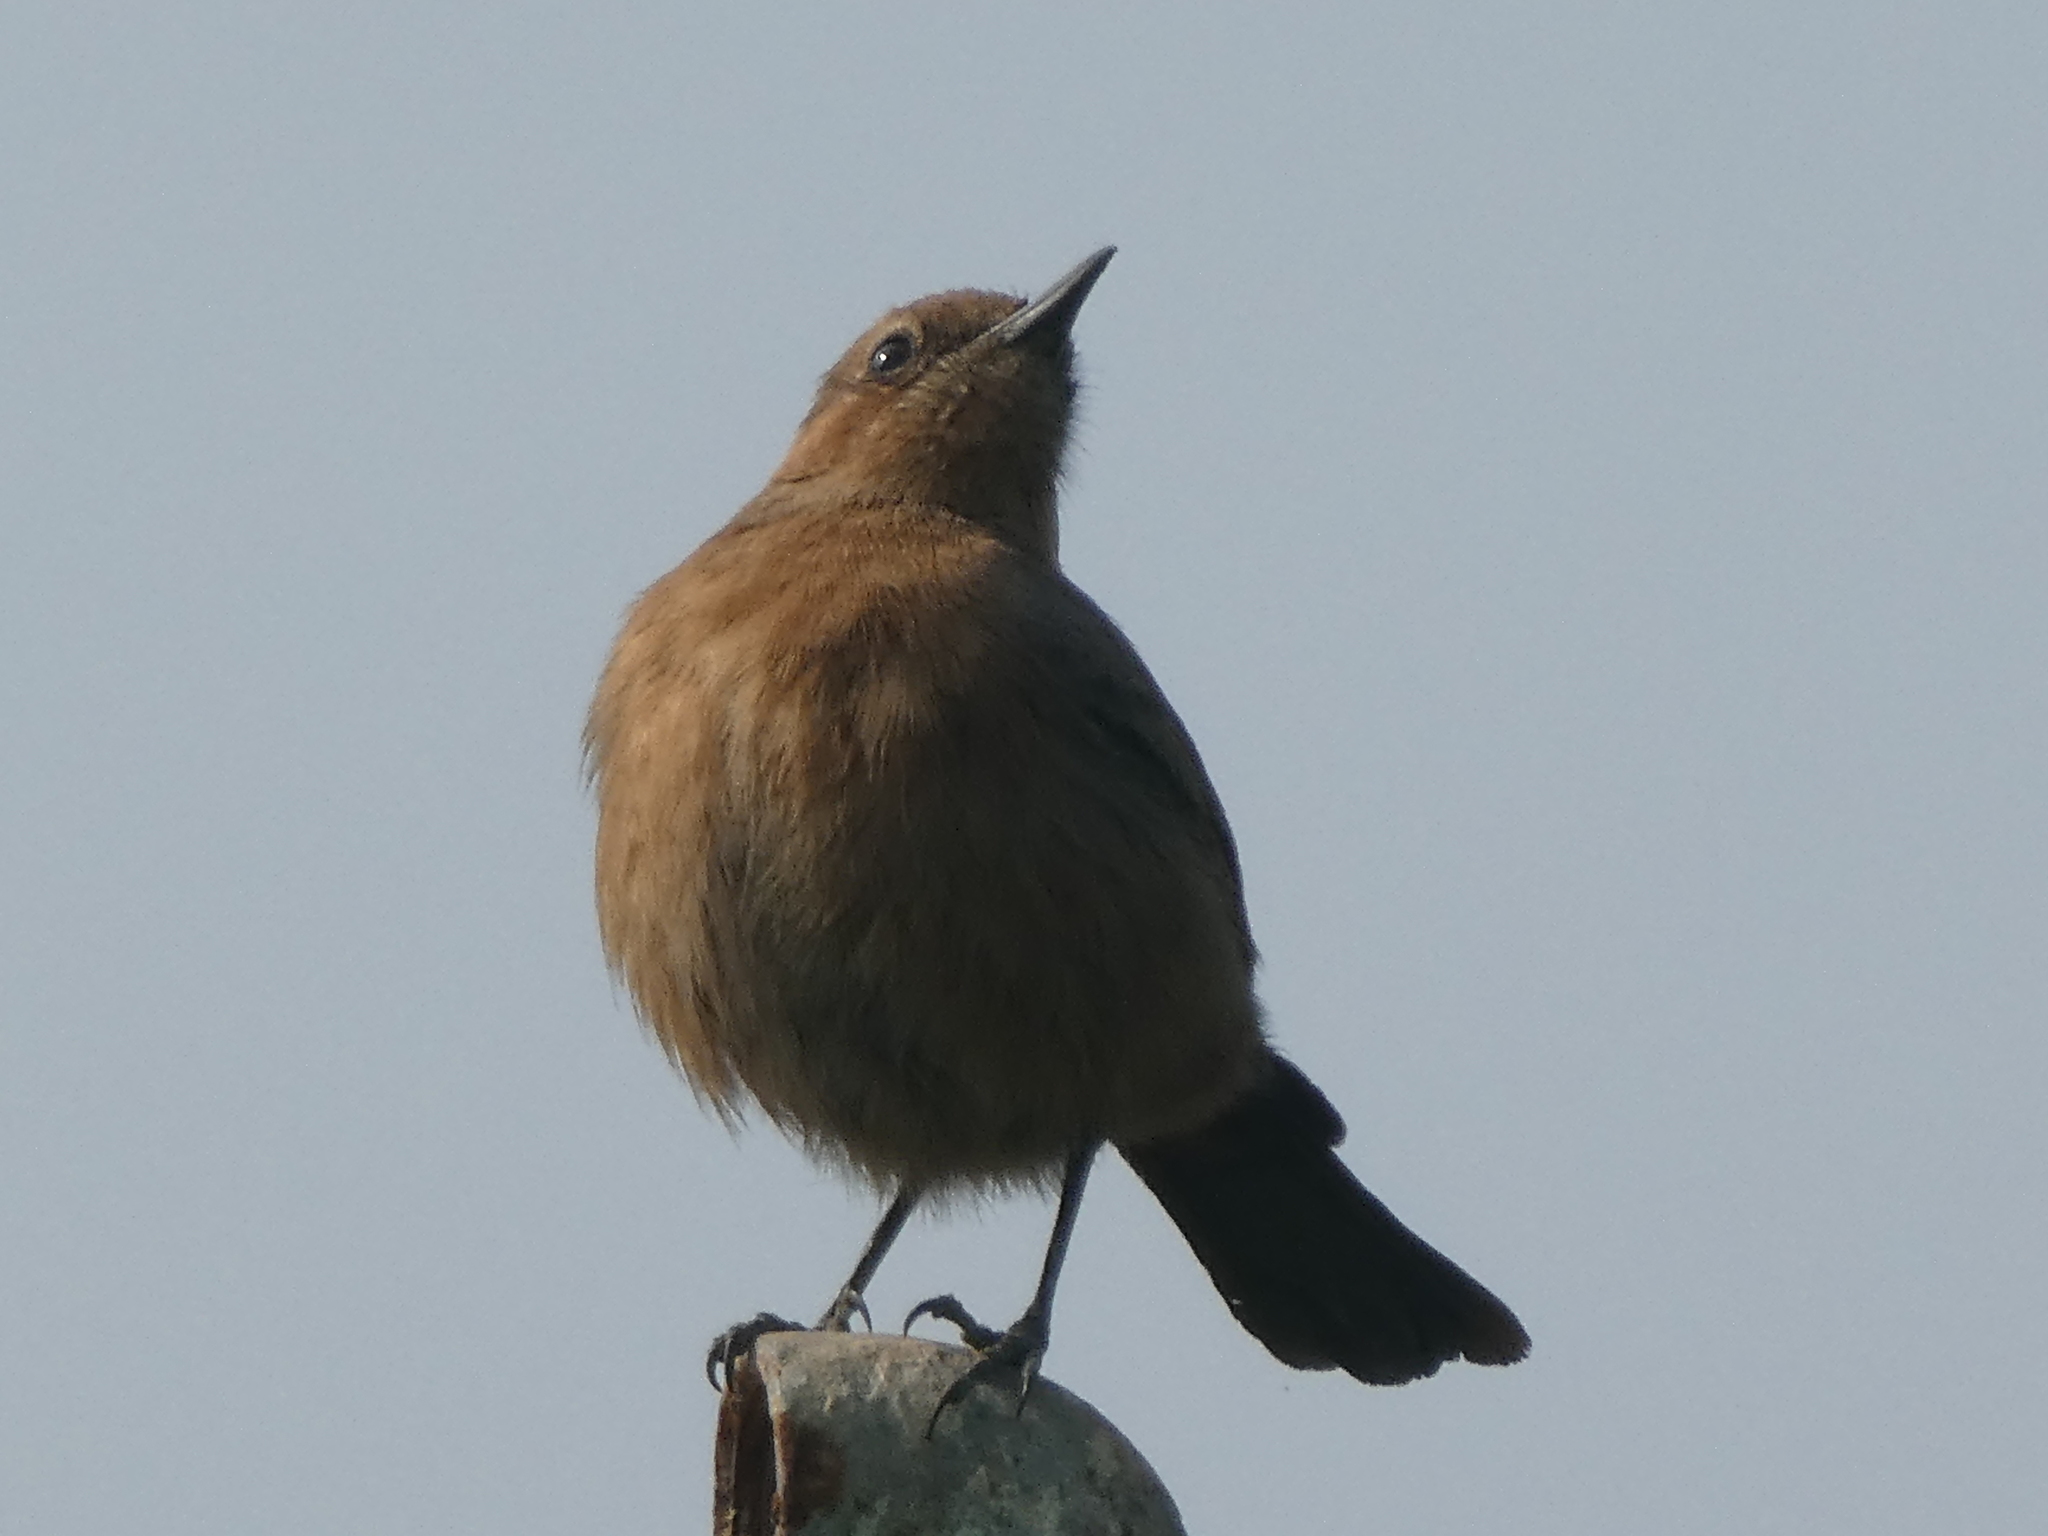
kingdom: Animalia
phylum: Chordata
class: Aves
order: Passeriformes
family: Muscicapidae
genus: Oenanthe
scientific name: Oenanthe fusca
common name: Brown rock chat
